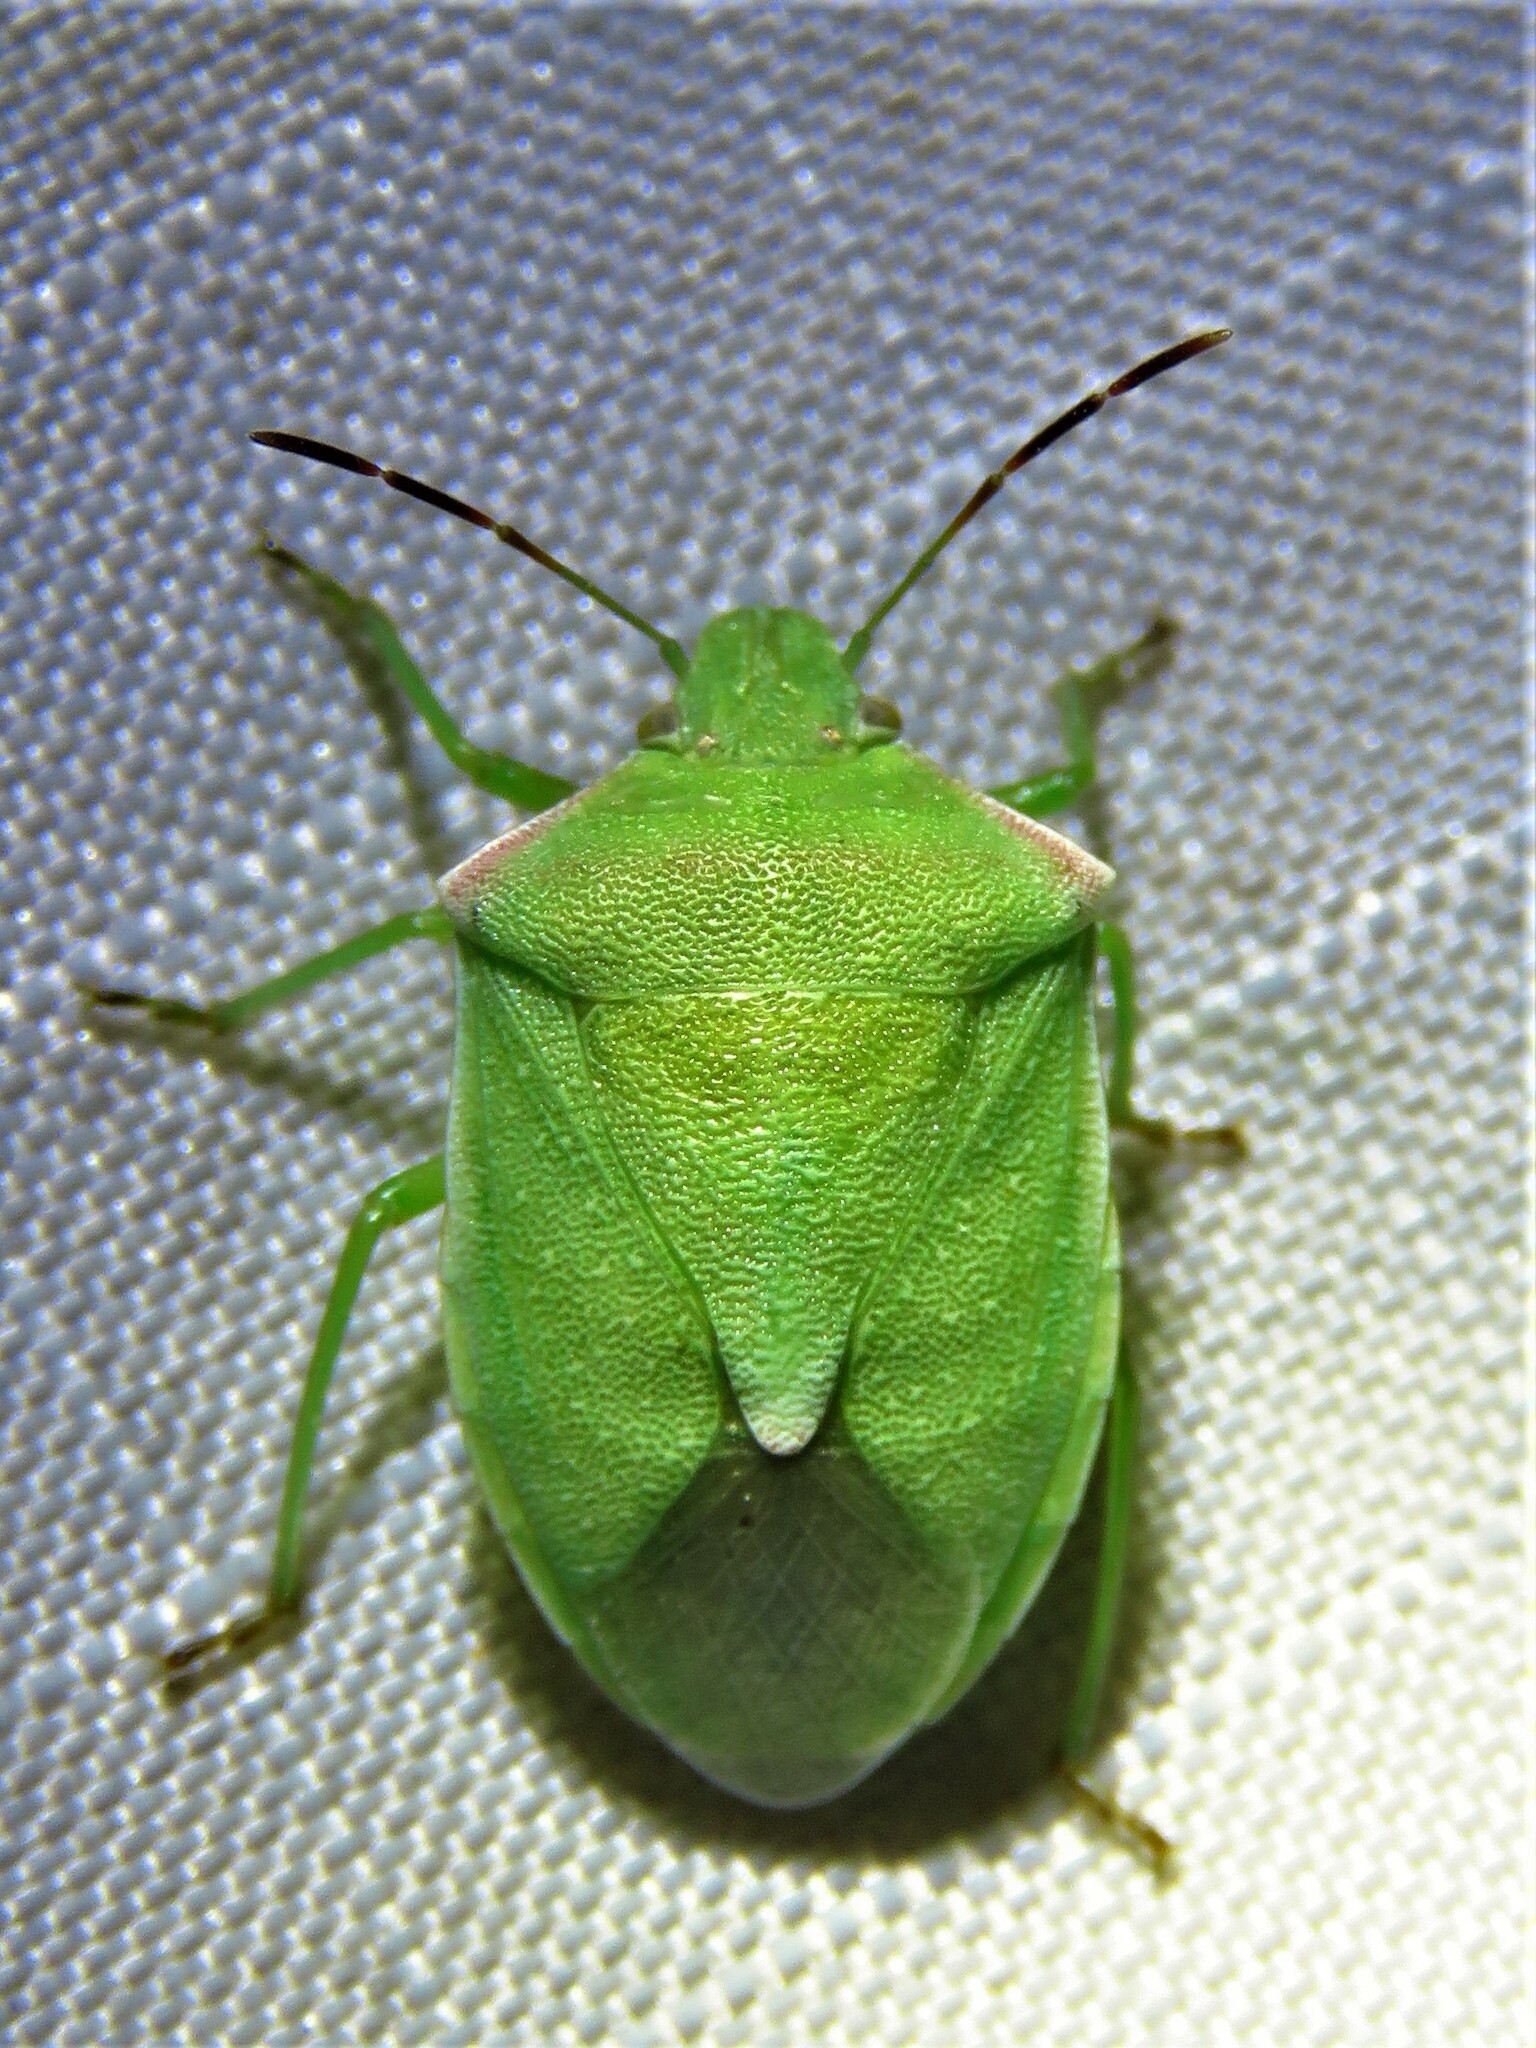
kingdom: Animalia
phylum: Arthropoda
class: Insecta
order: Hemiptera
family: Pentatomidae
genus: Thyanta
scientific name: Thyanta custator
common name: Stink bug
